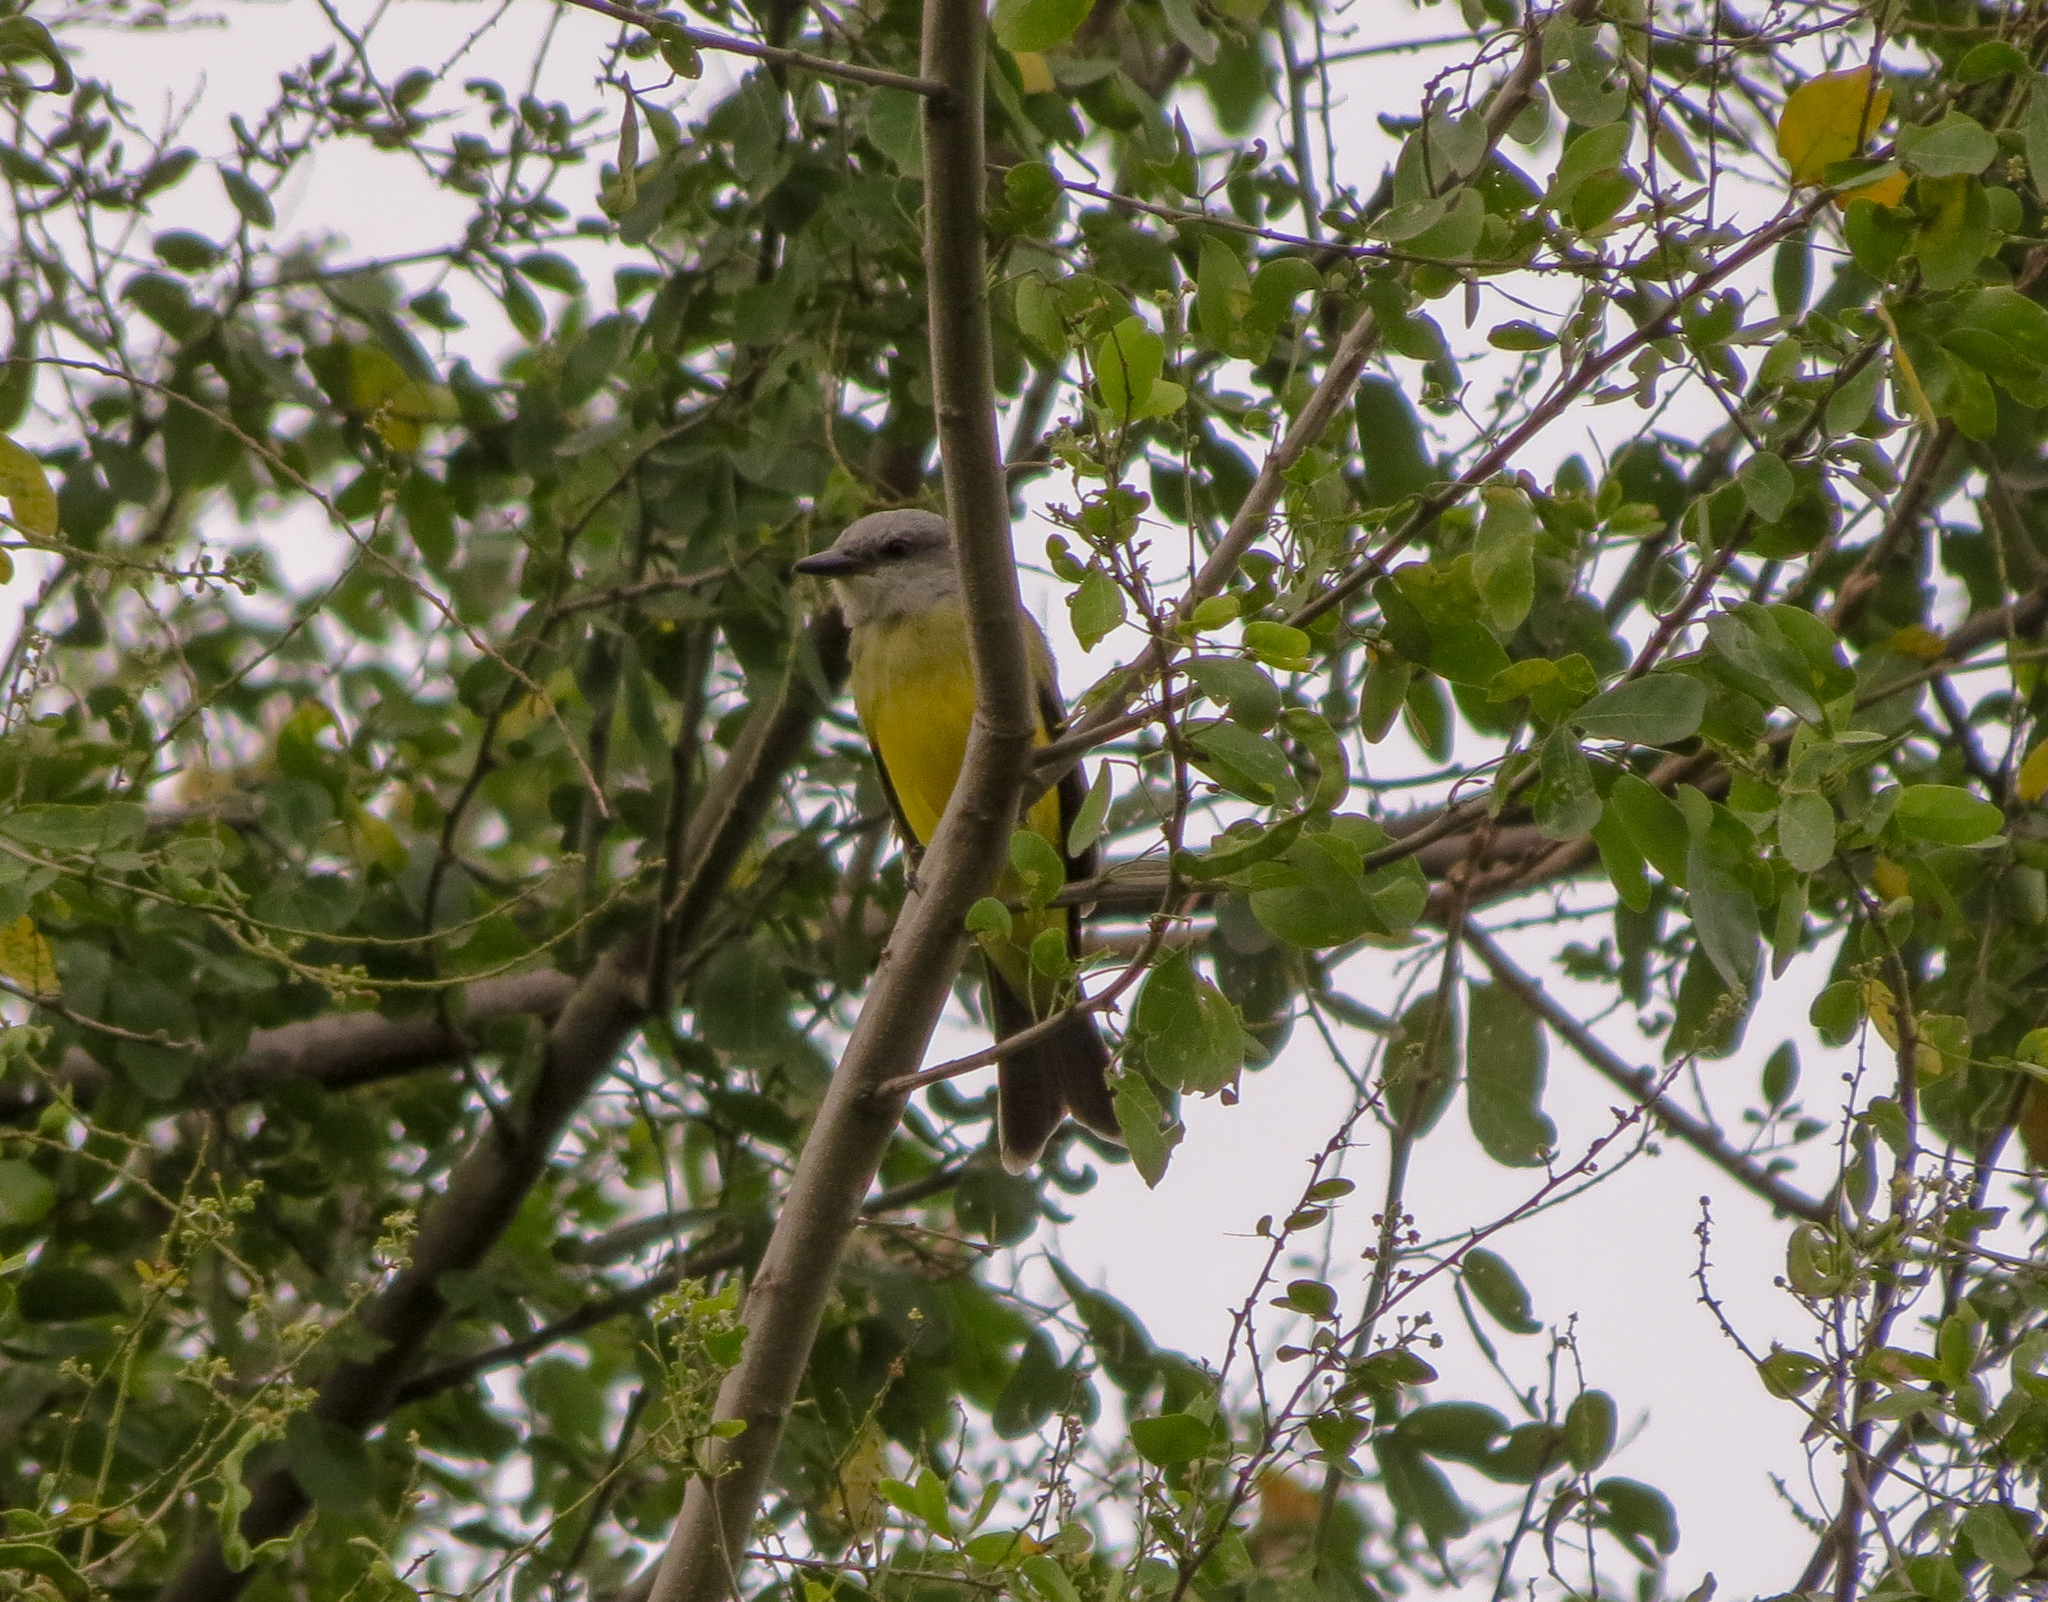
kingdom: Animalia
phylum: Chordata
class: Aves
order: Passeriformes
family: Tyrannidae
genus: Tyrannus
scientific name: Tyrannus melancholicus
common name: Tropical kingbird
